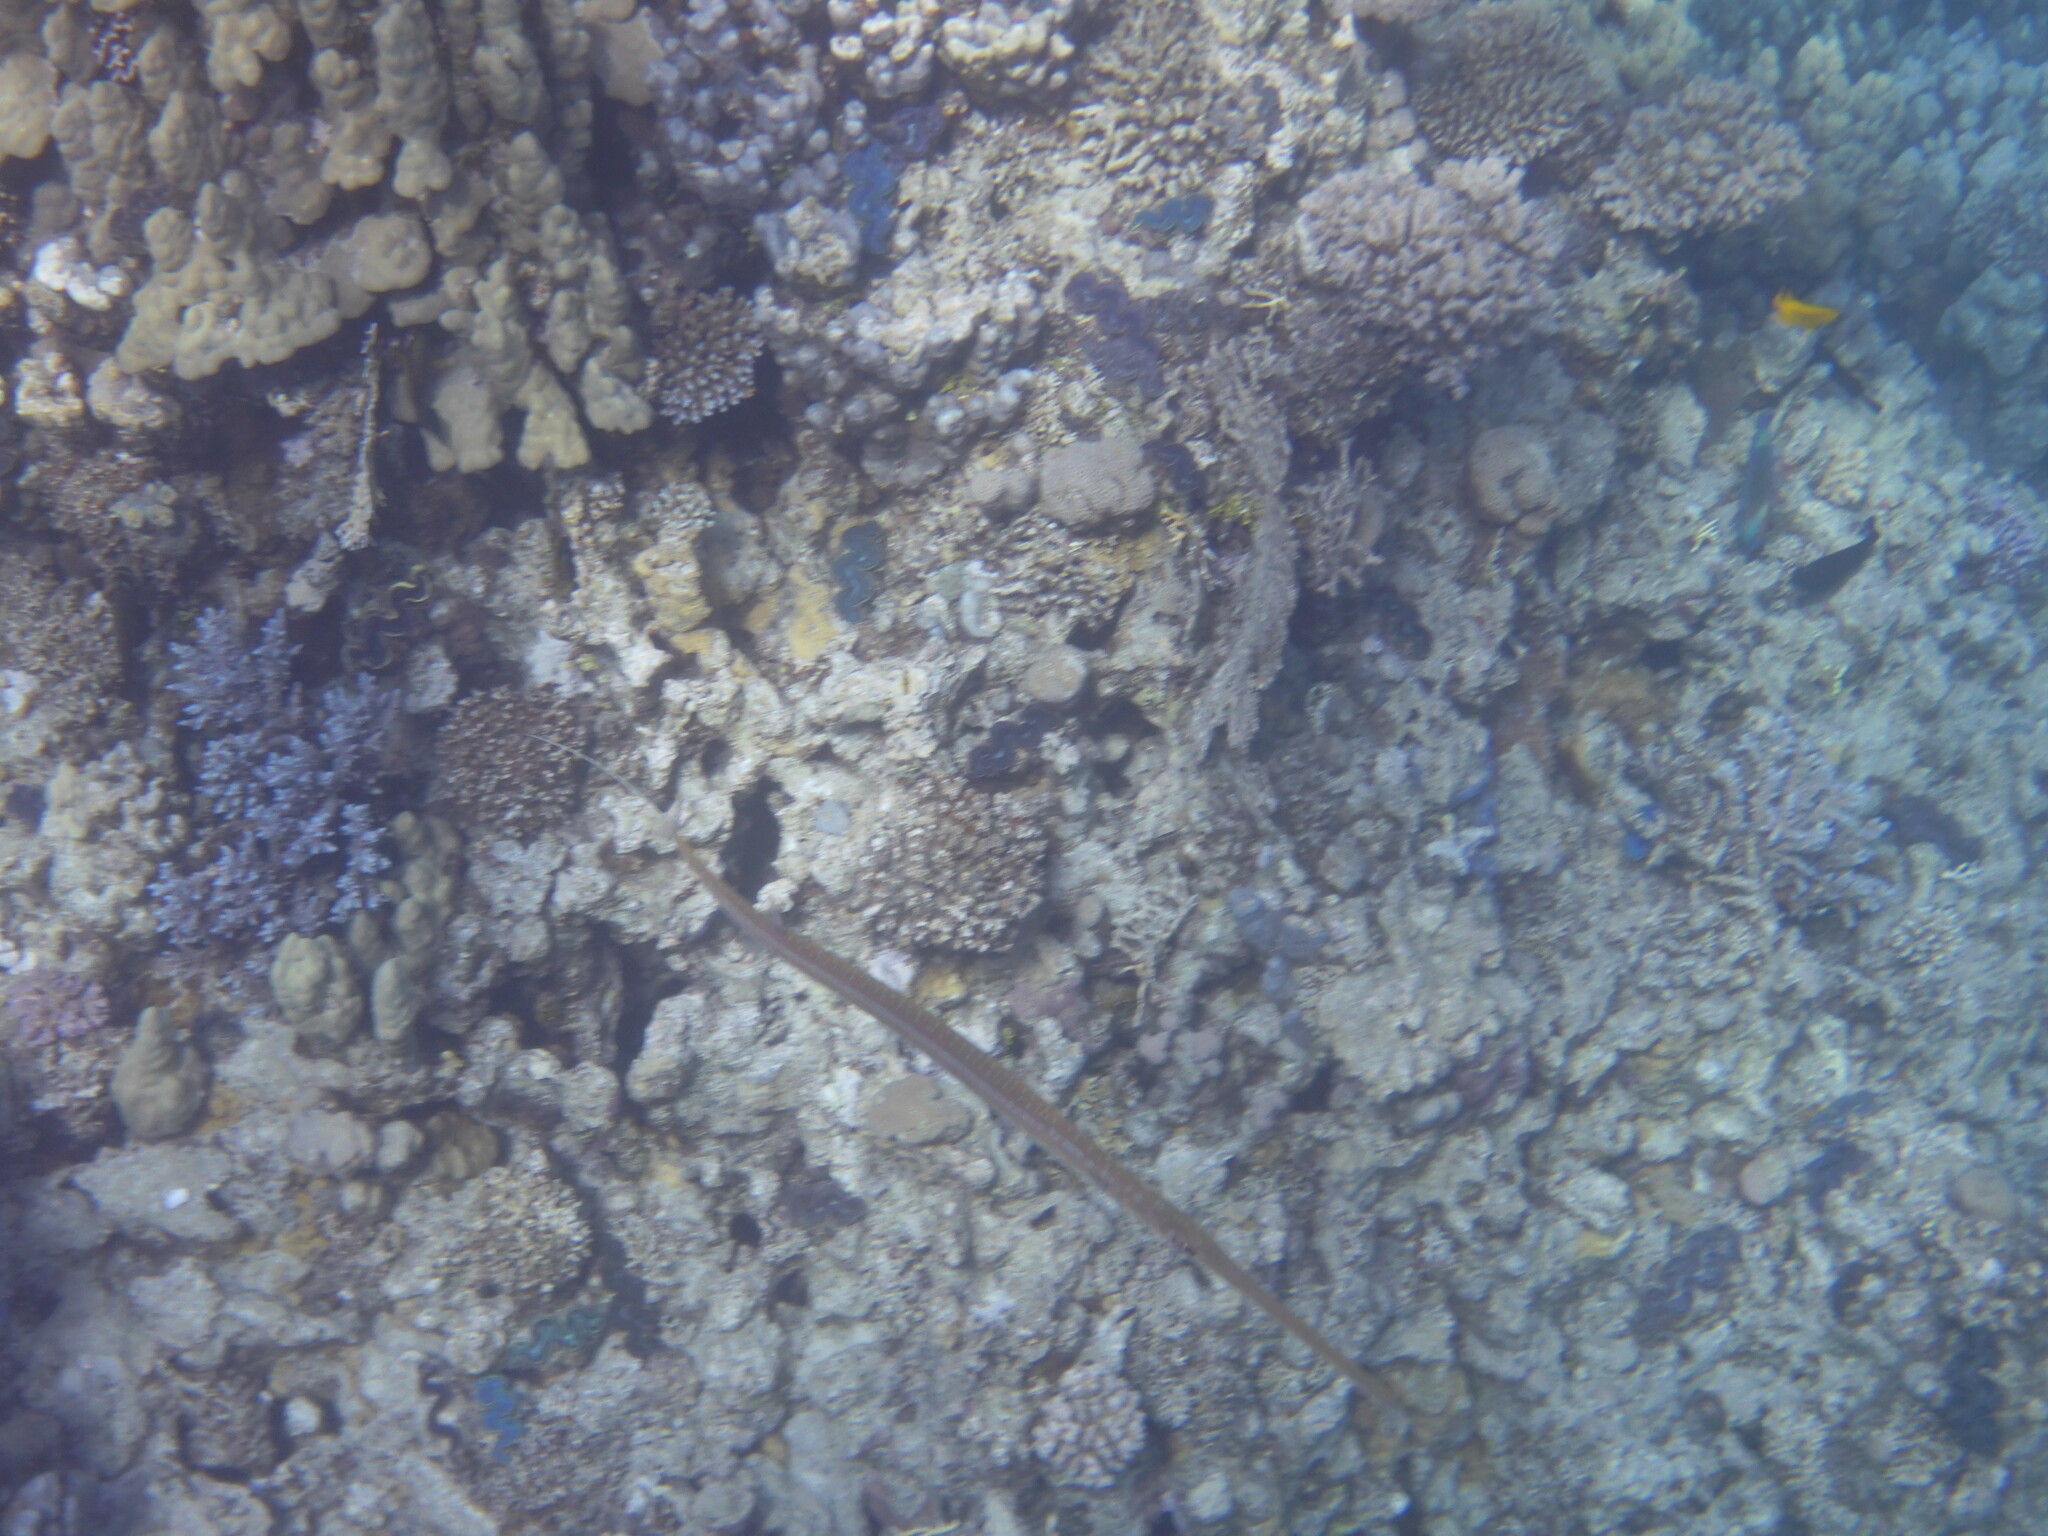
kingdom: Animalia
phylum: Chordata
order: Syngnathiformes
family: Fistulariidae
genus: Fistularia
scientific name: Fistularia commersonii
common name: Bluespotted cornetfish
